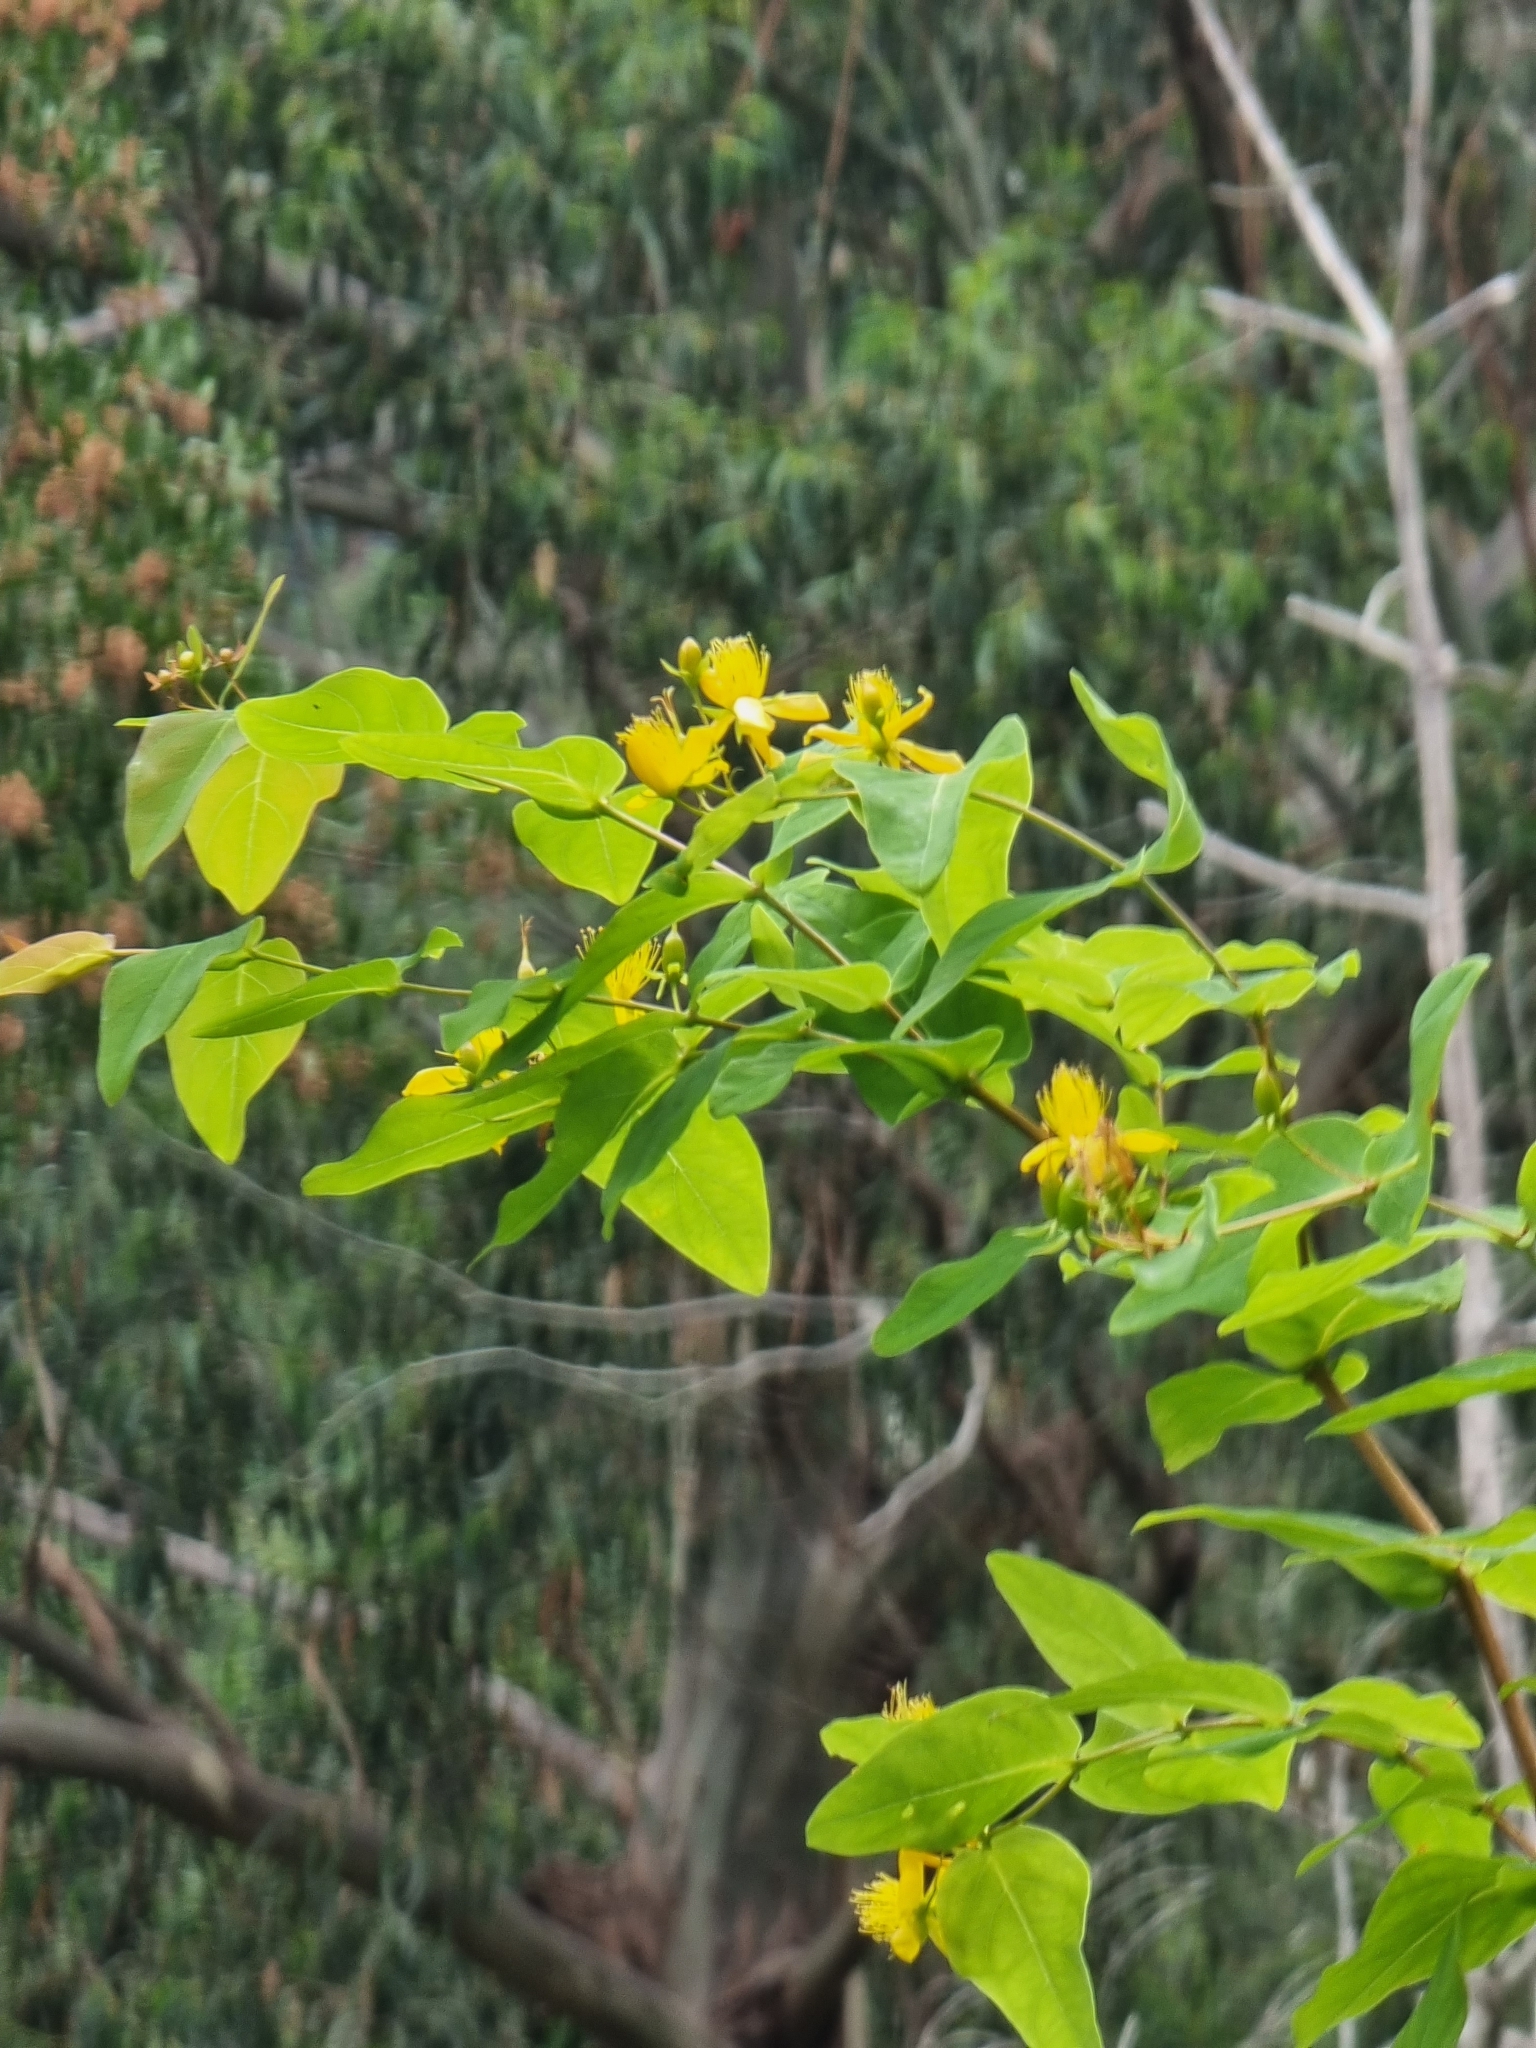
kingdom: Plantae
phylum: Tracheophyta
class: Magnoliopsida
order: Malpighiales
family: Hypericaceae
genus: Hypericum
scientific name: Hypericum grandifolium
